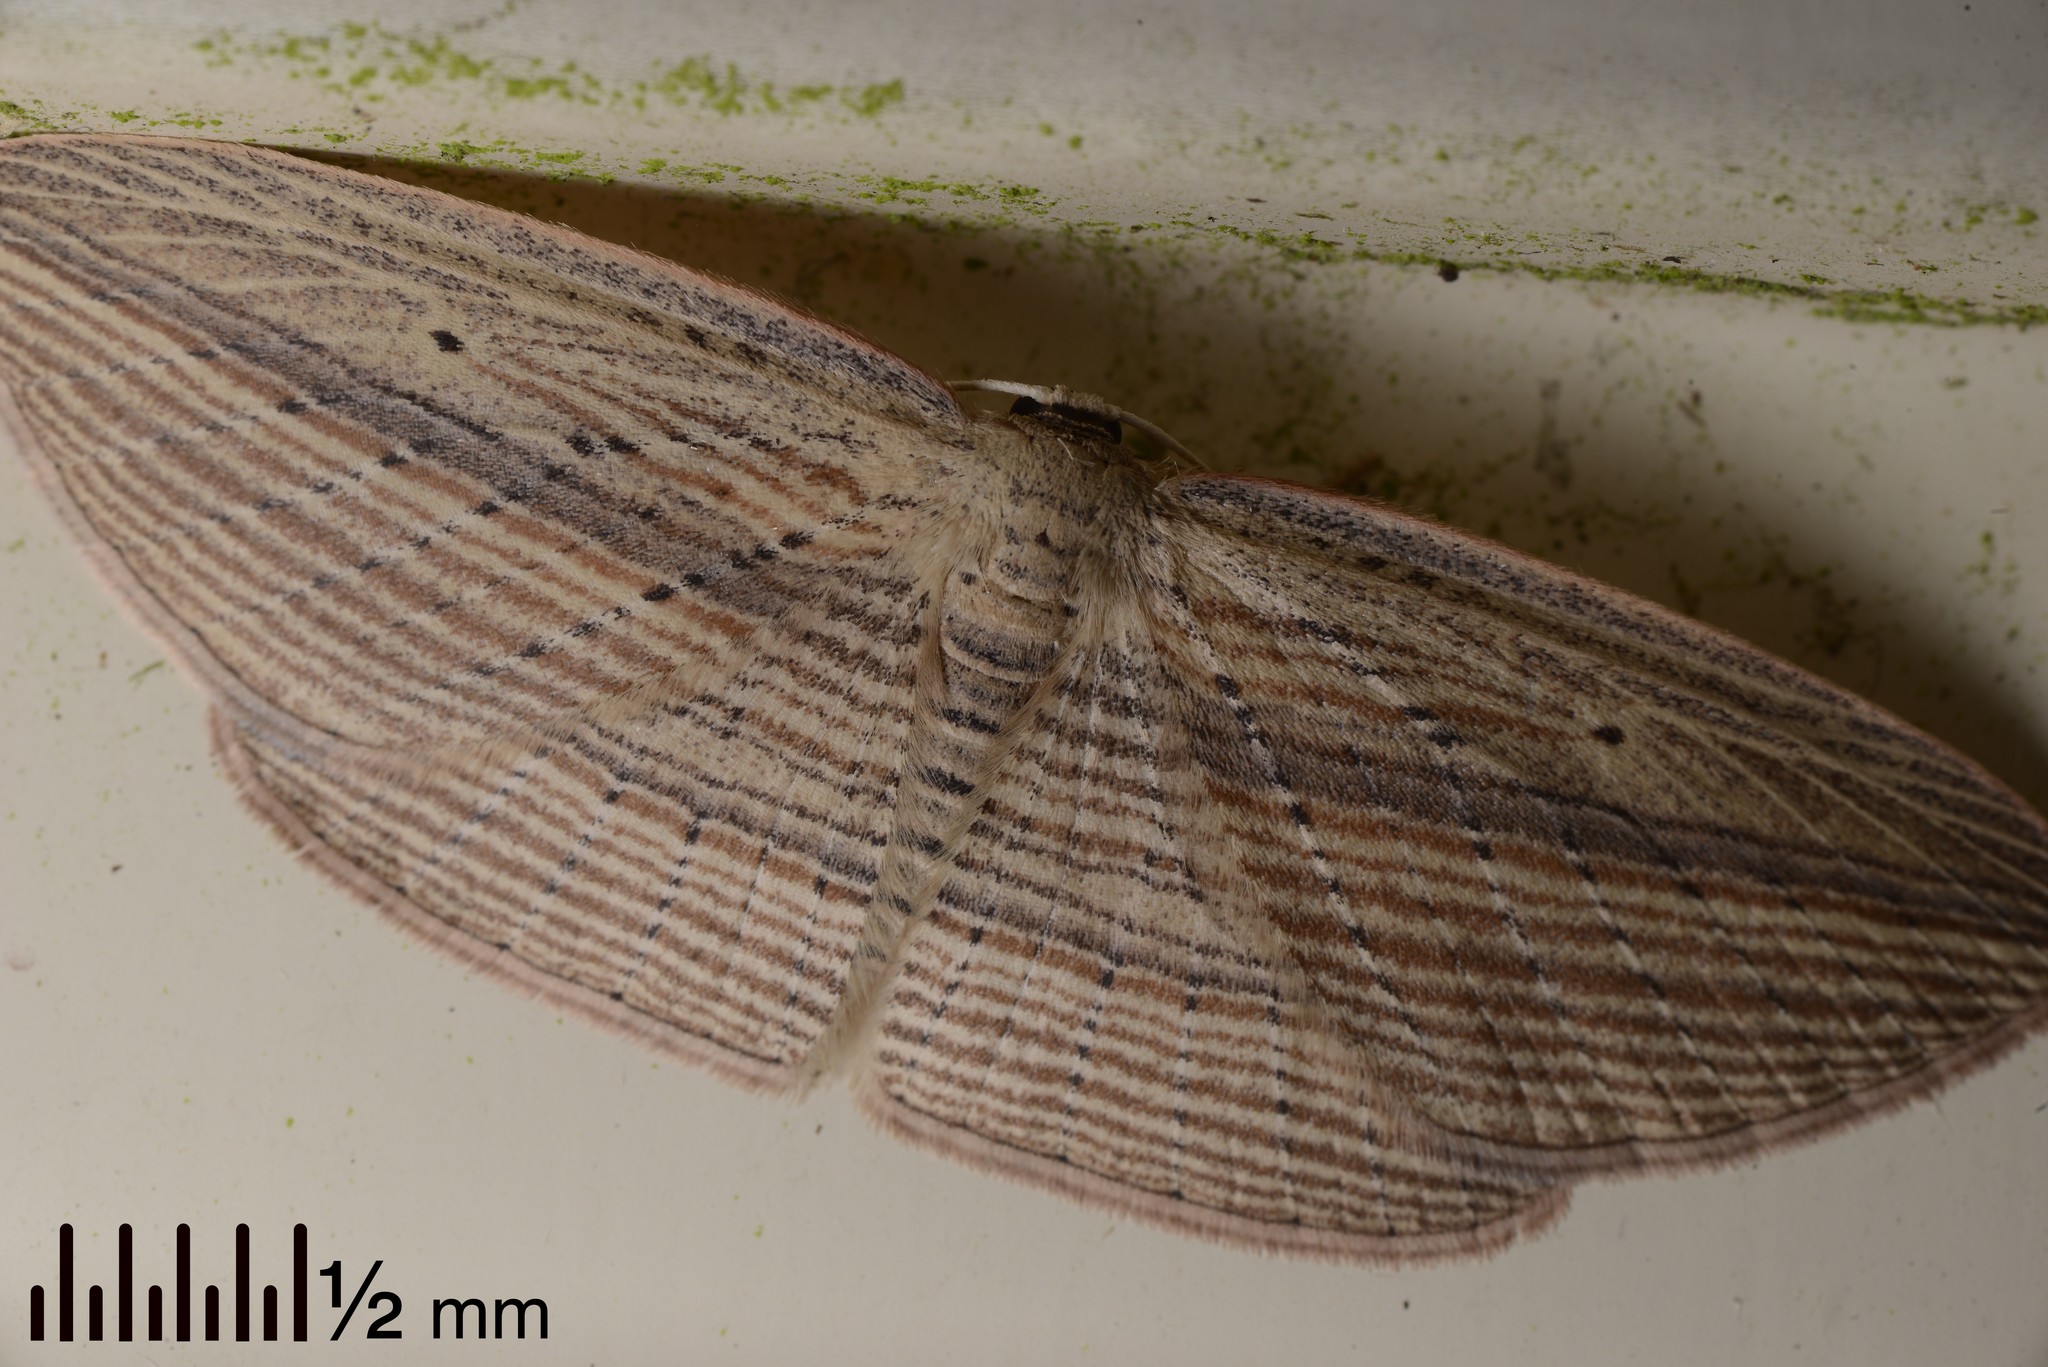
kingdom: Animalia
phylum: Arthropoda
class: Insecta
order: Lepidoptera
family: Geometridae
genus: Epiphryne
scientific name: Epiphryne verriculata
